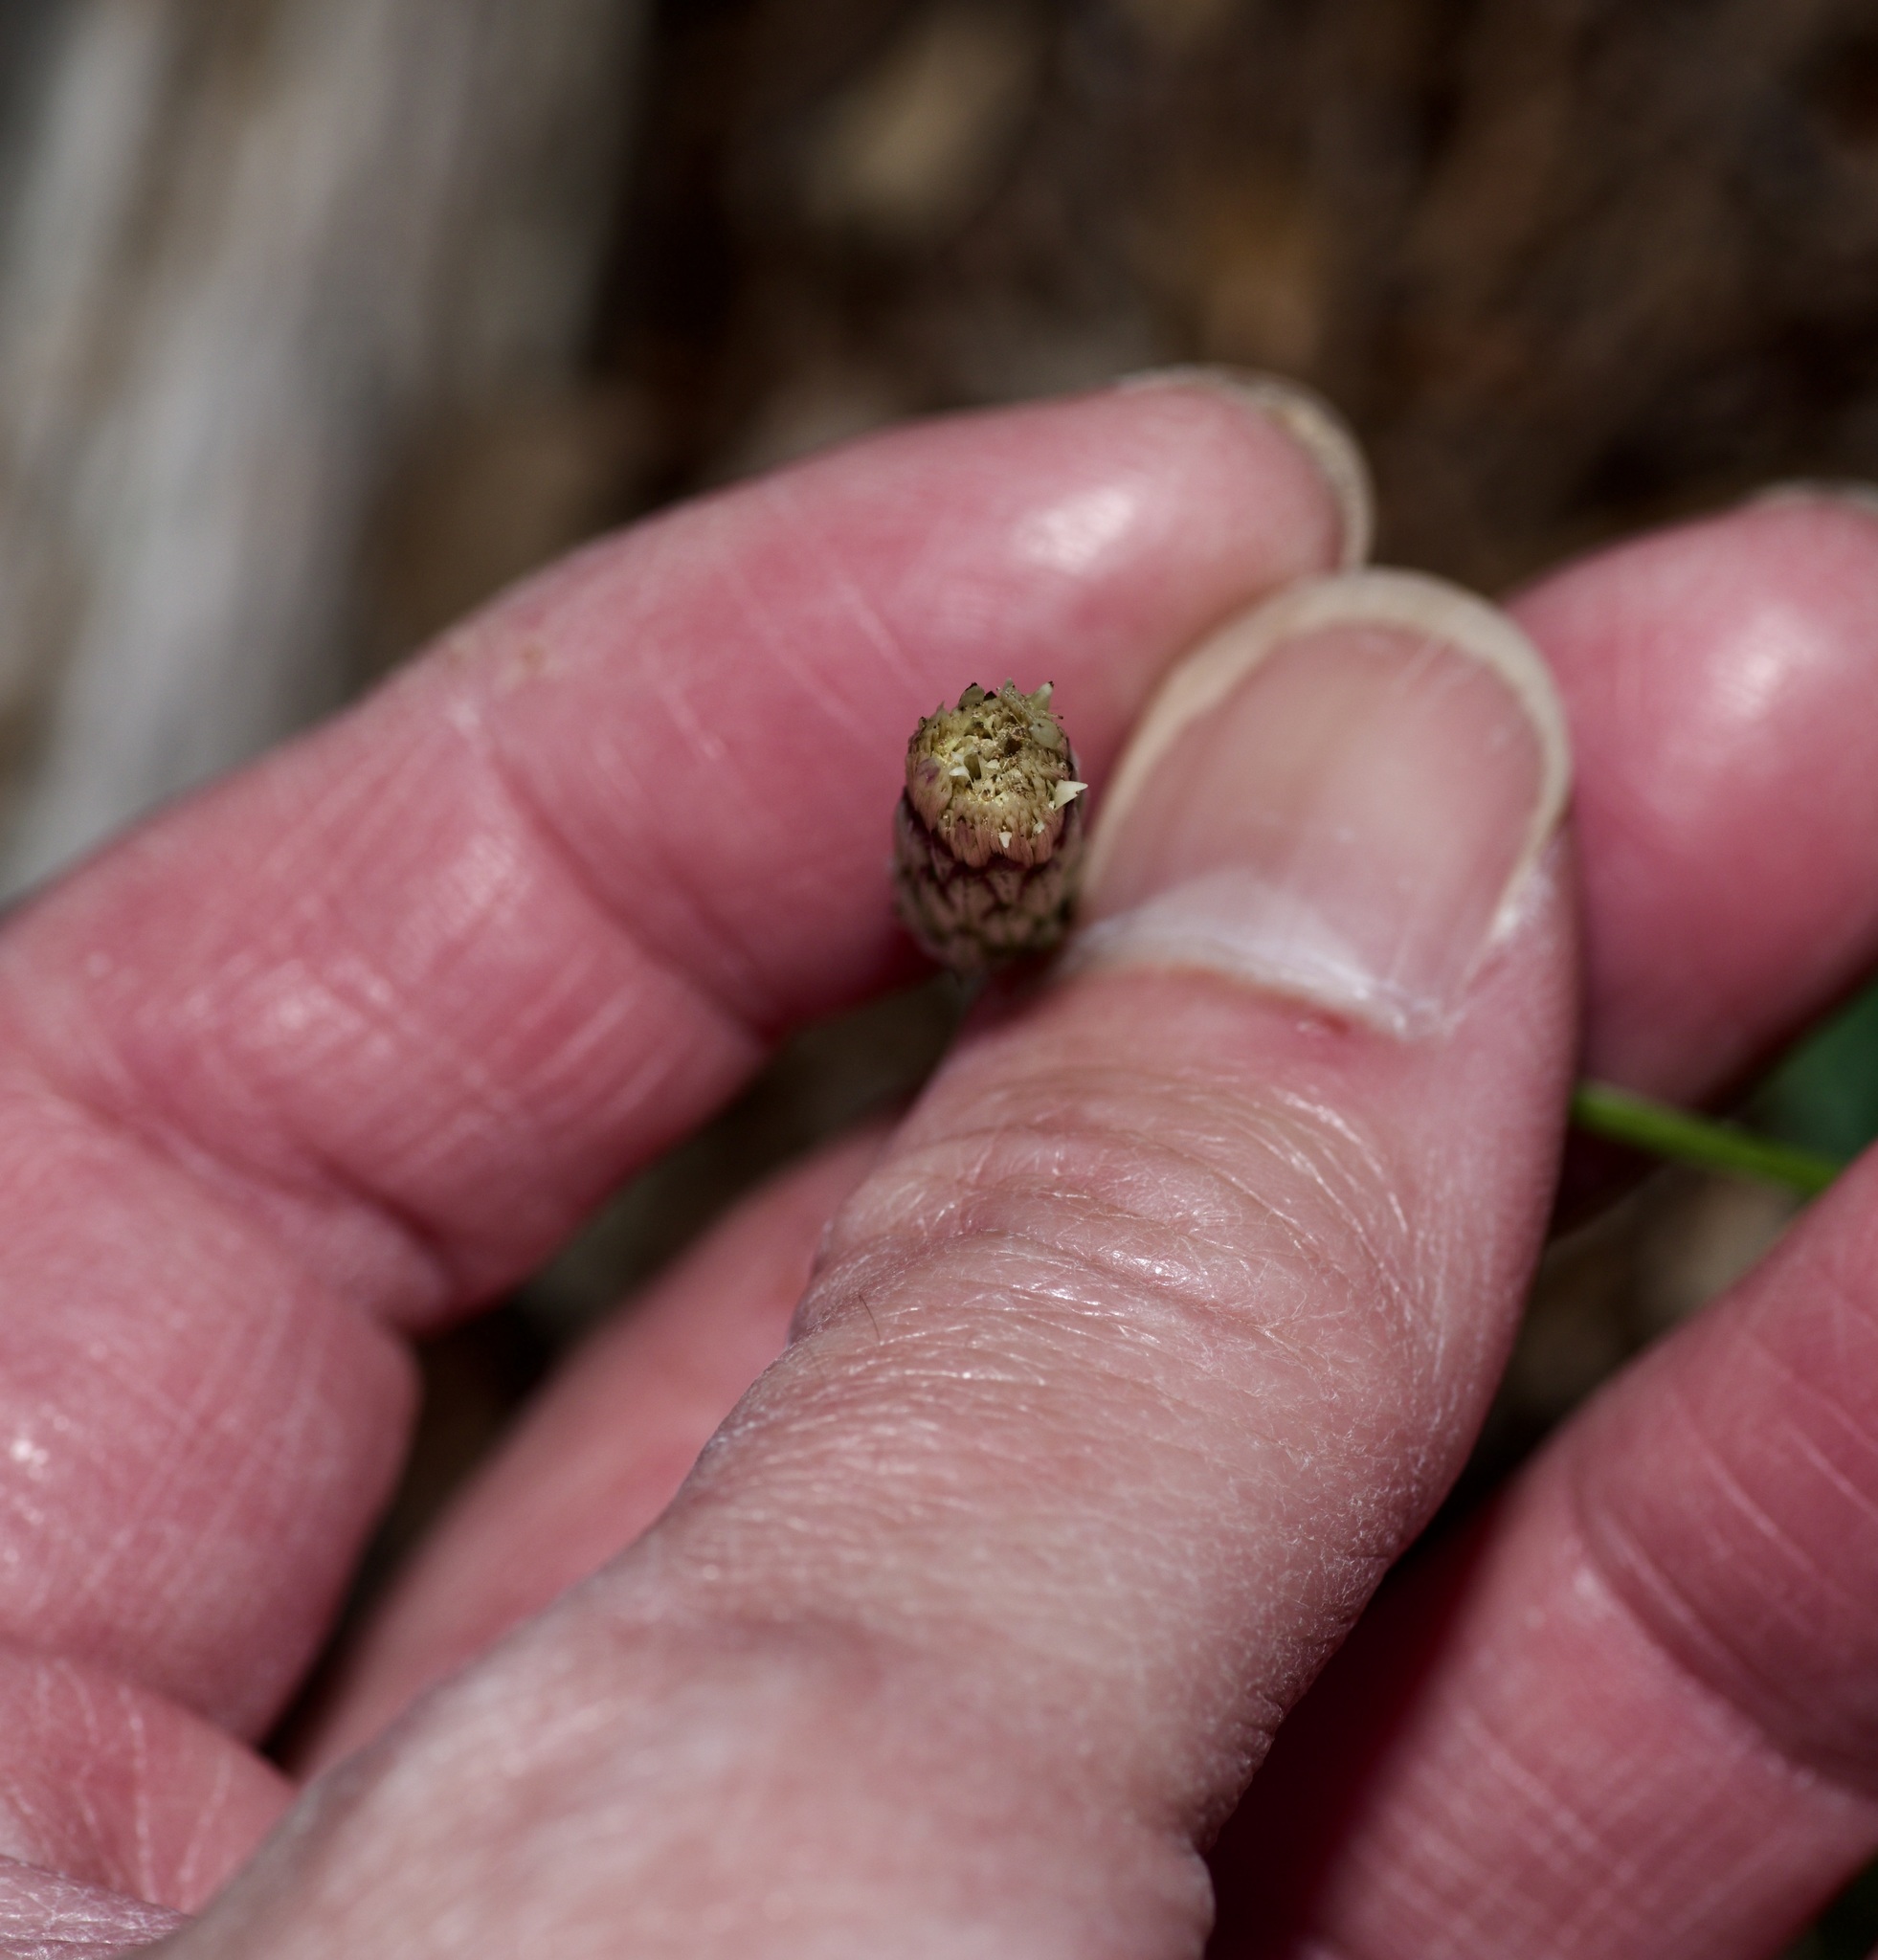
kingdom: Plantae
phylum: Tracheophyta
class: Magnoliopsida
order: Asterales
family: Asteraceae
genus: Chaptalia
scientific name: Chaptalia texana
